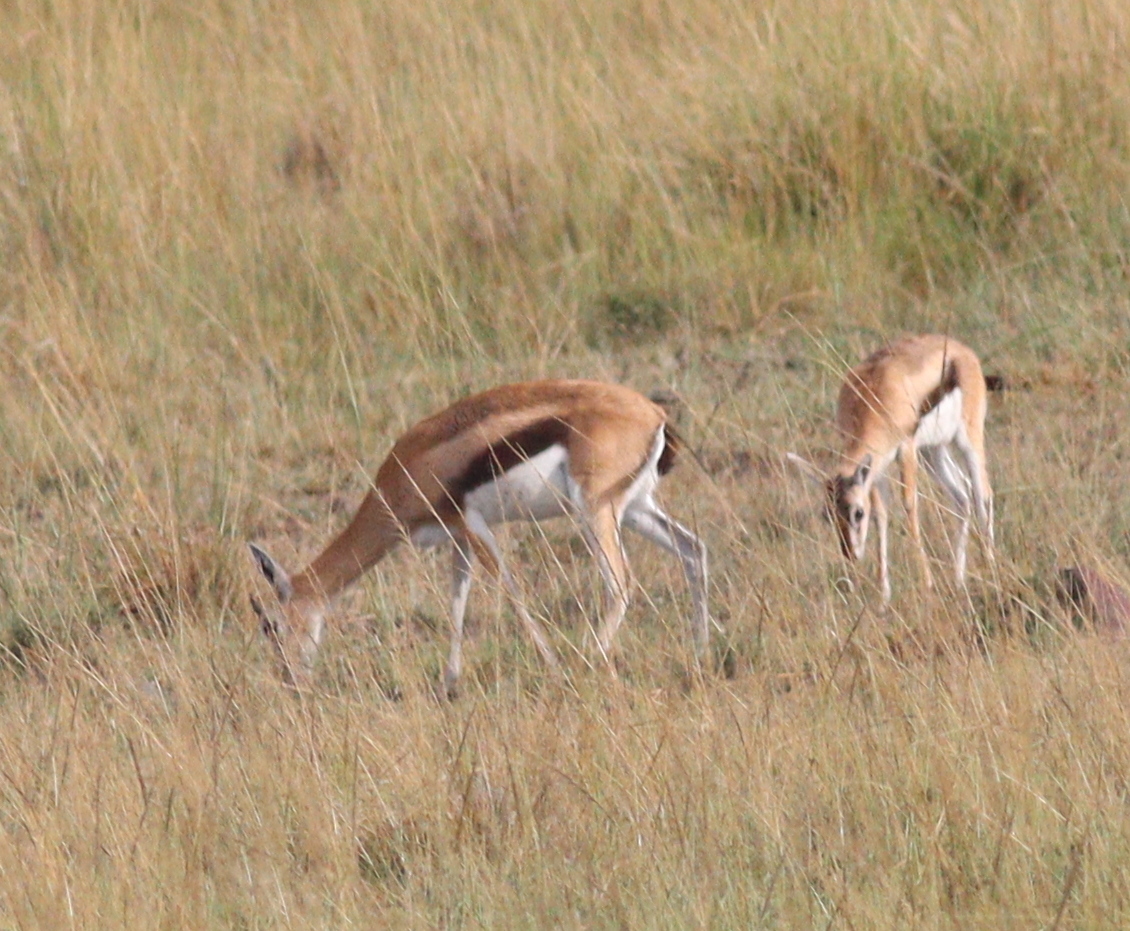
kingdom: Animalia
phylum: Chordata
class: Mammalia
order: Artiodactyla
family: Bovidae
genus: Eudorcas
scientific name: Eudorcas thomsonii
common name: Thomson's gazelle
